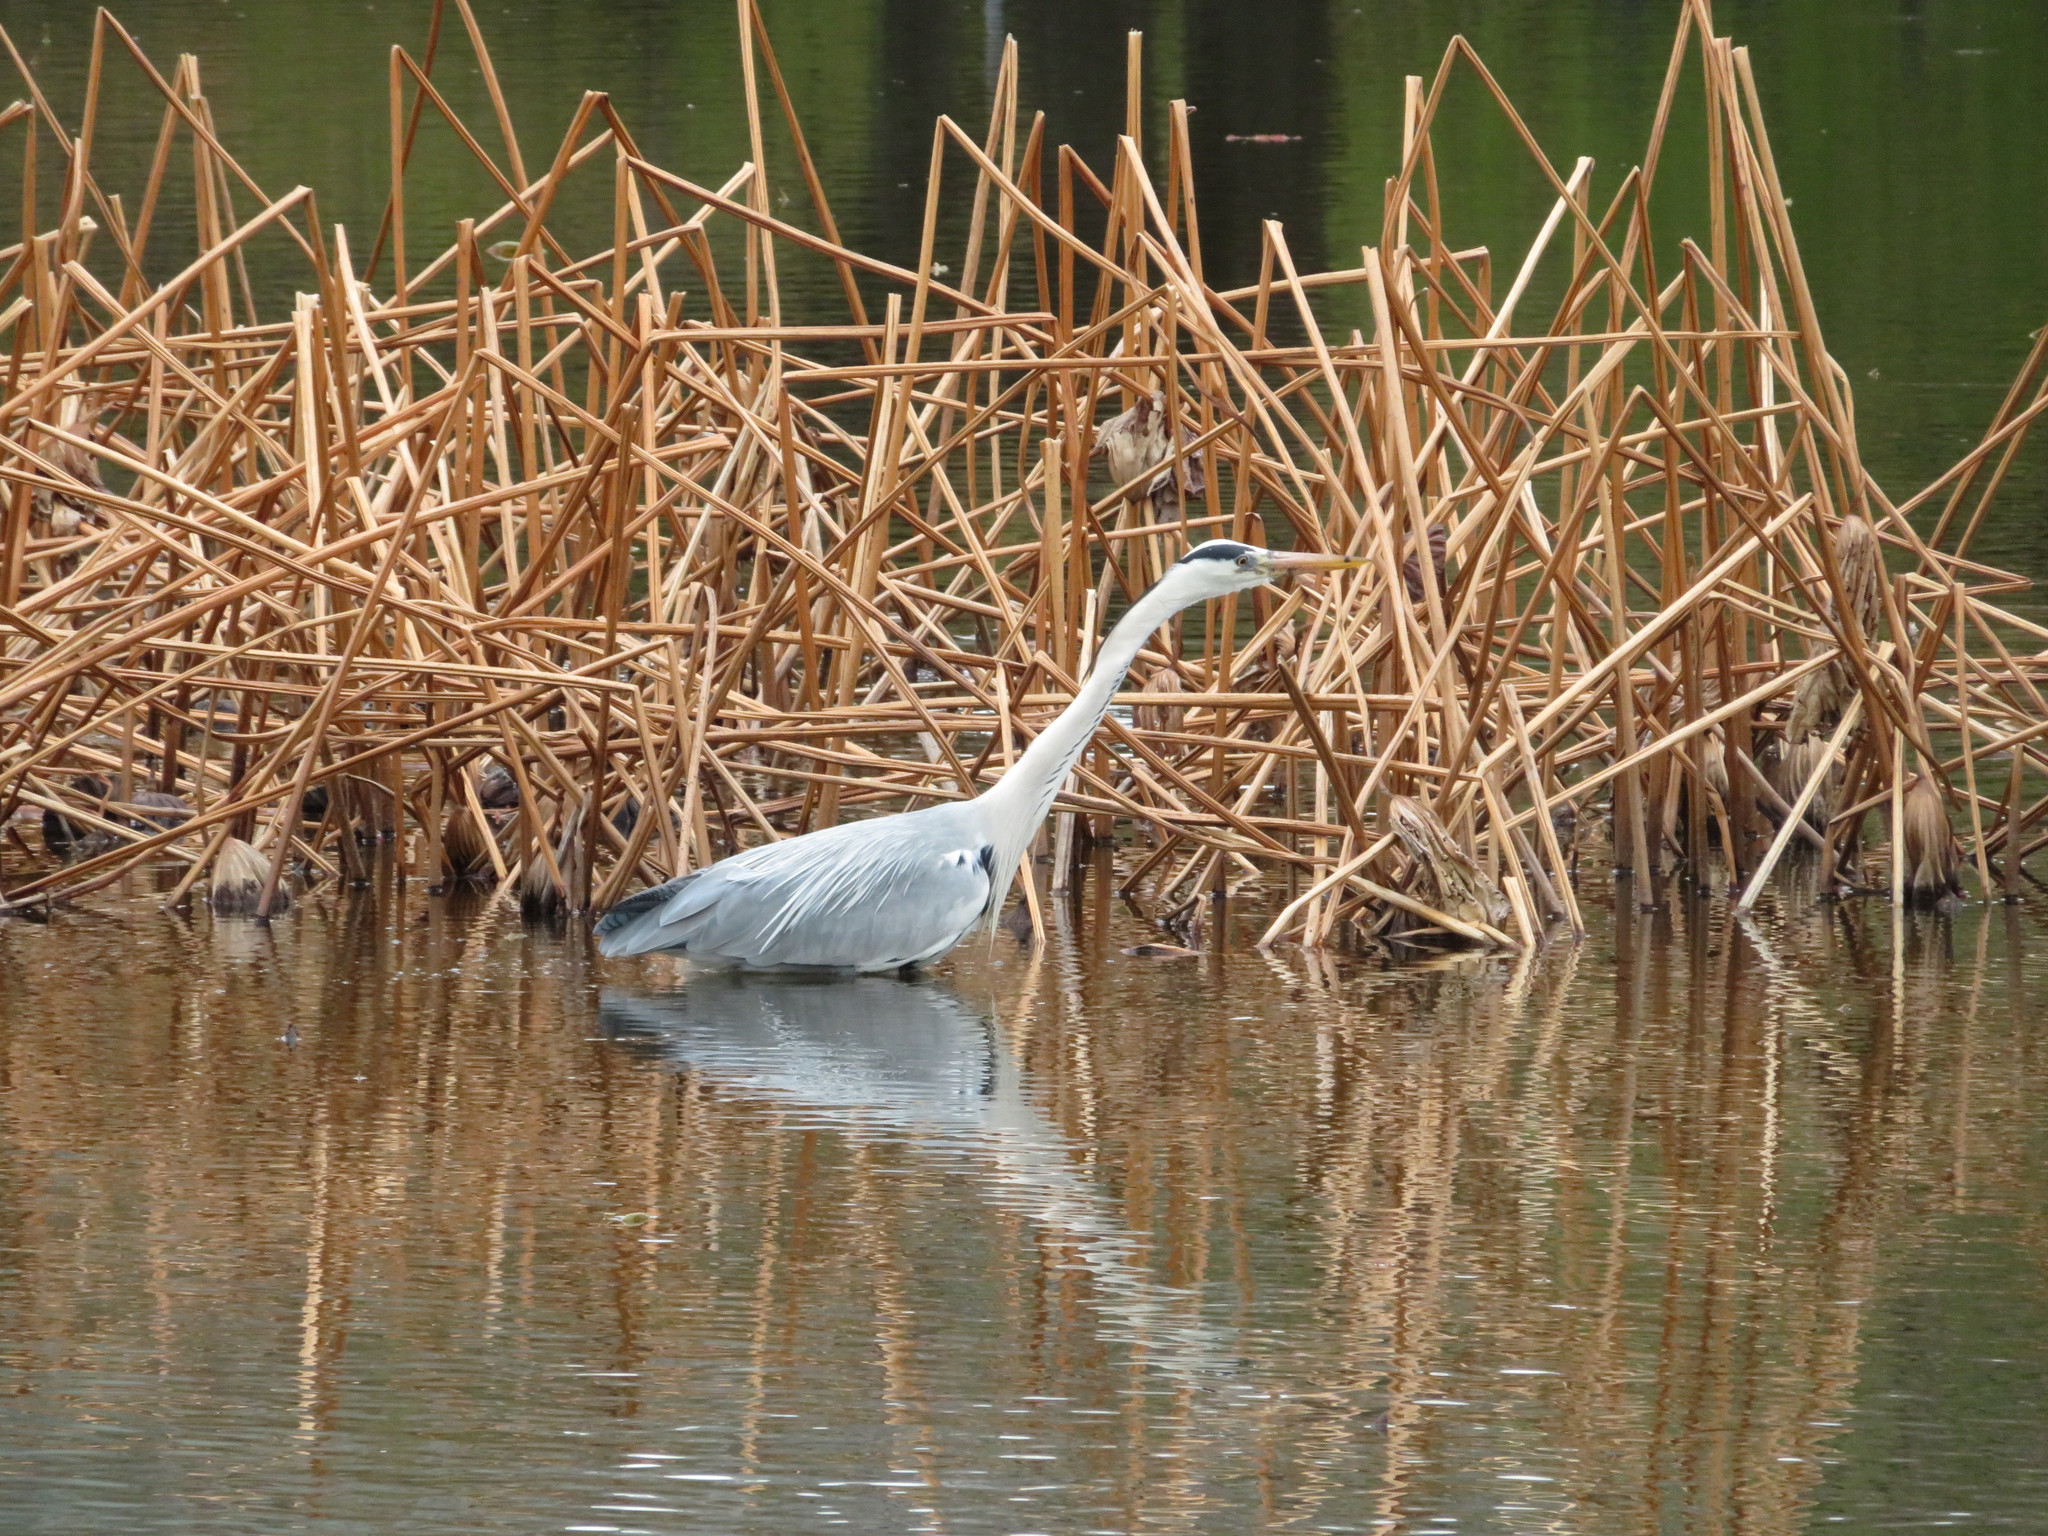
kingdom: Animalia
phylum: Chordata
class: Aves
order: Pelecaniformes
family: Ardeidae
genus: Ardea
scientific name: Ardea cinerea
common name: Grey heron
